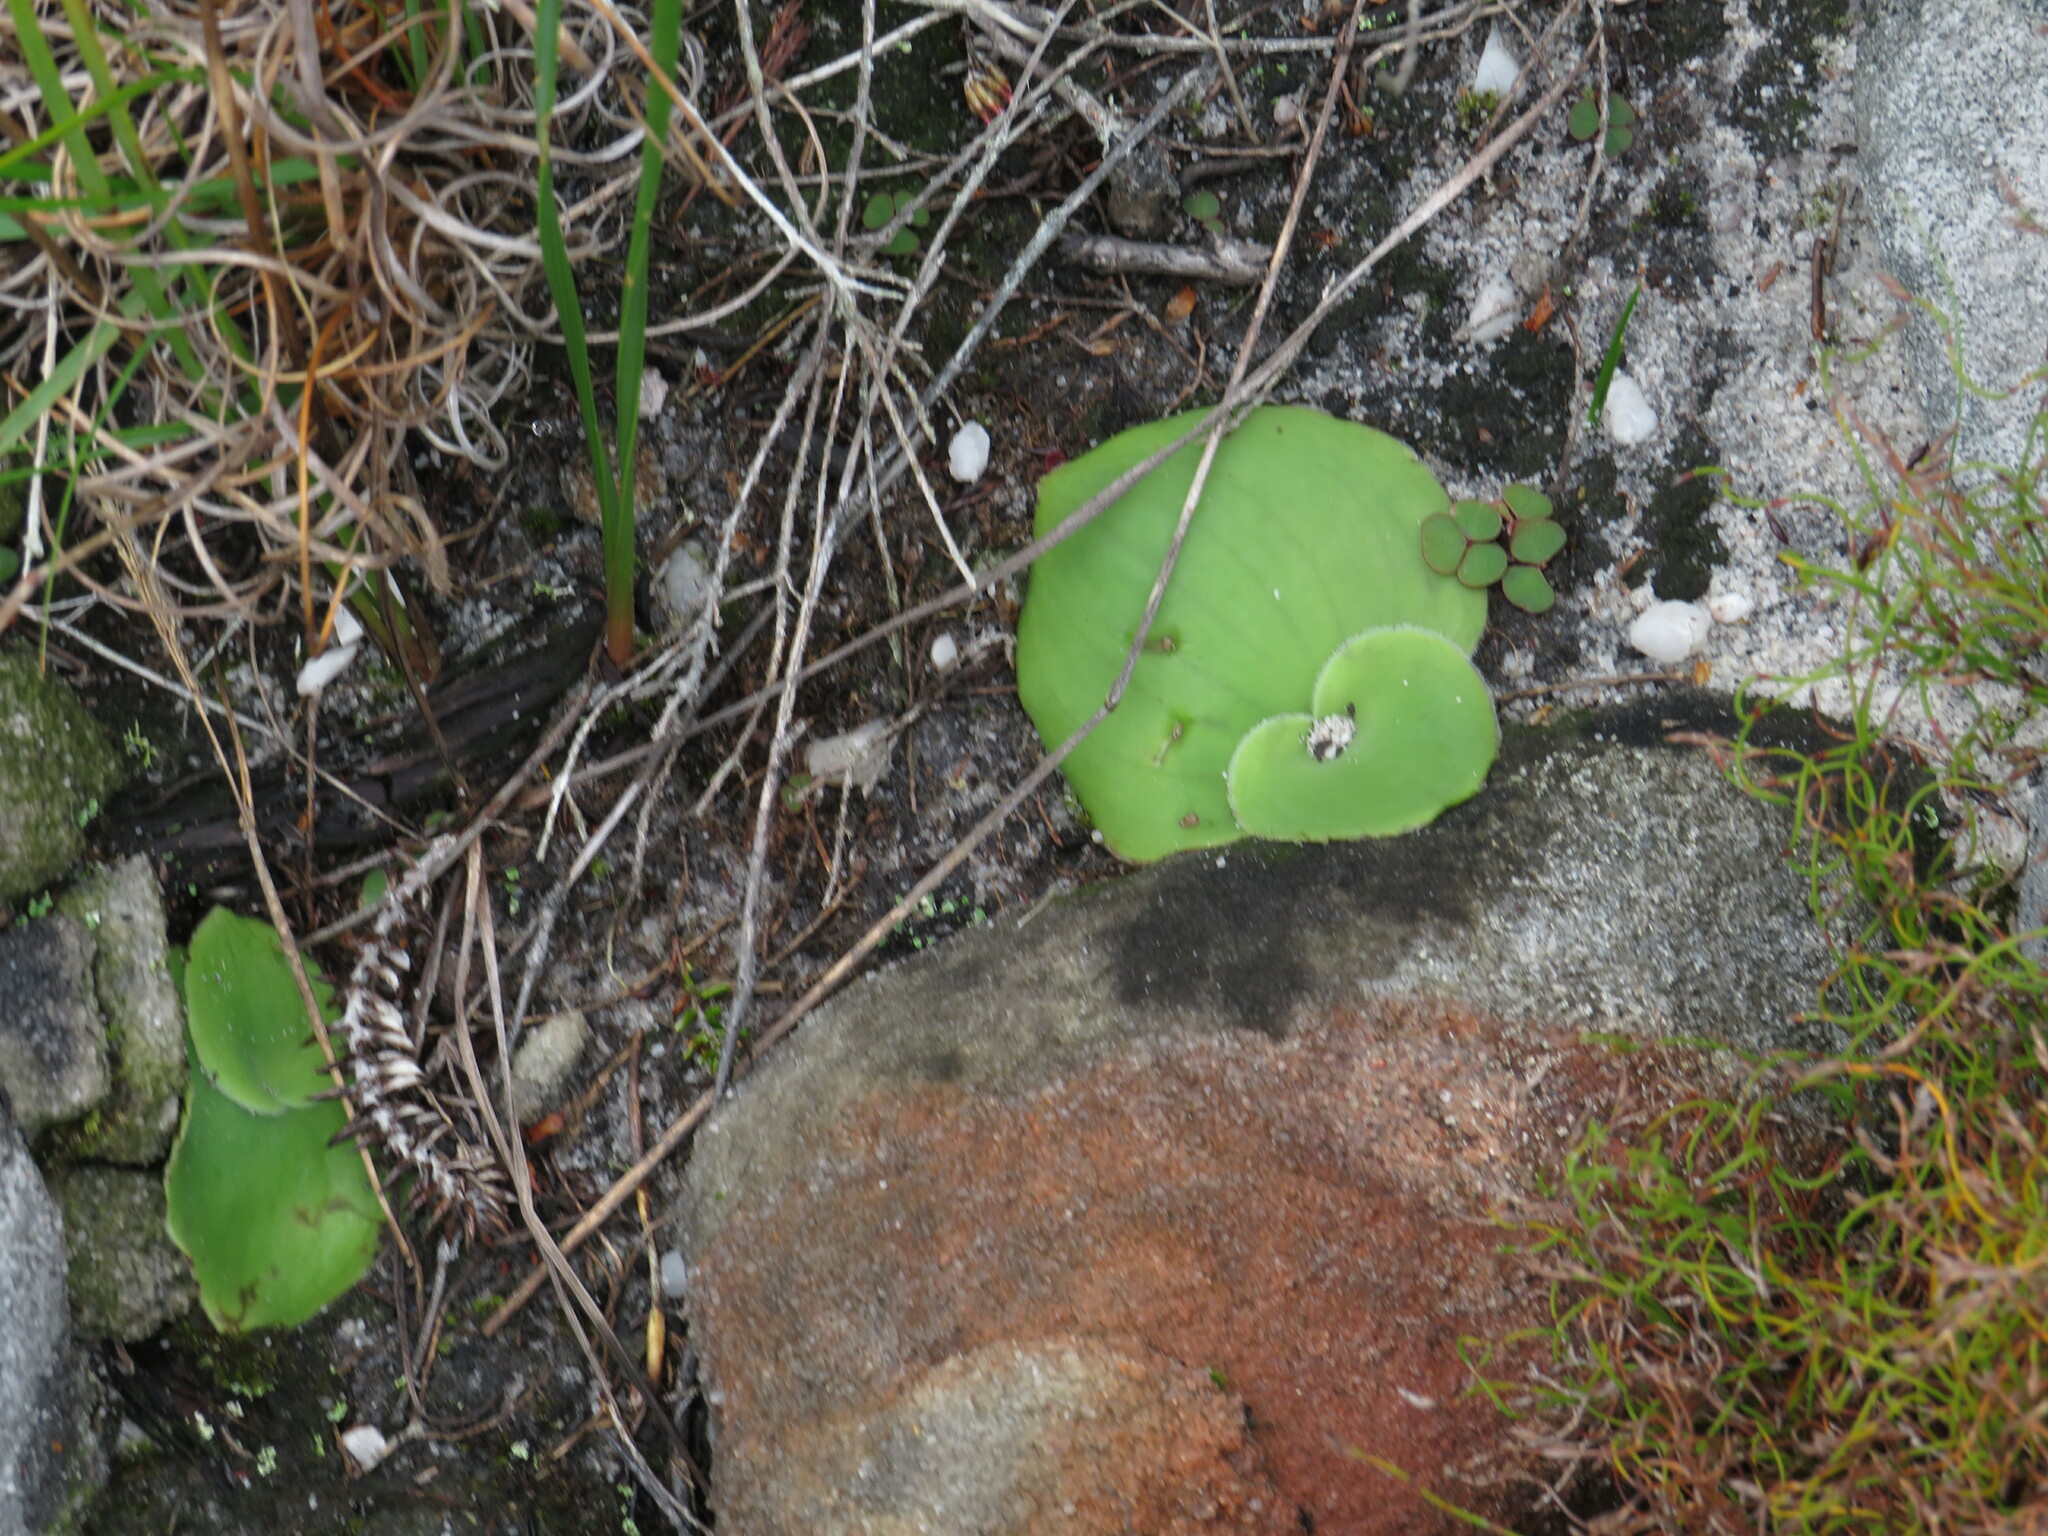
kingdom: Plantae
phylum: Tracheophyta
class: Liliopsida
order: Asparagales
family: Orchidaceae
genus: Satyrium
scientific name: Satyrium bicorne
